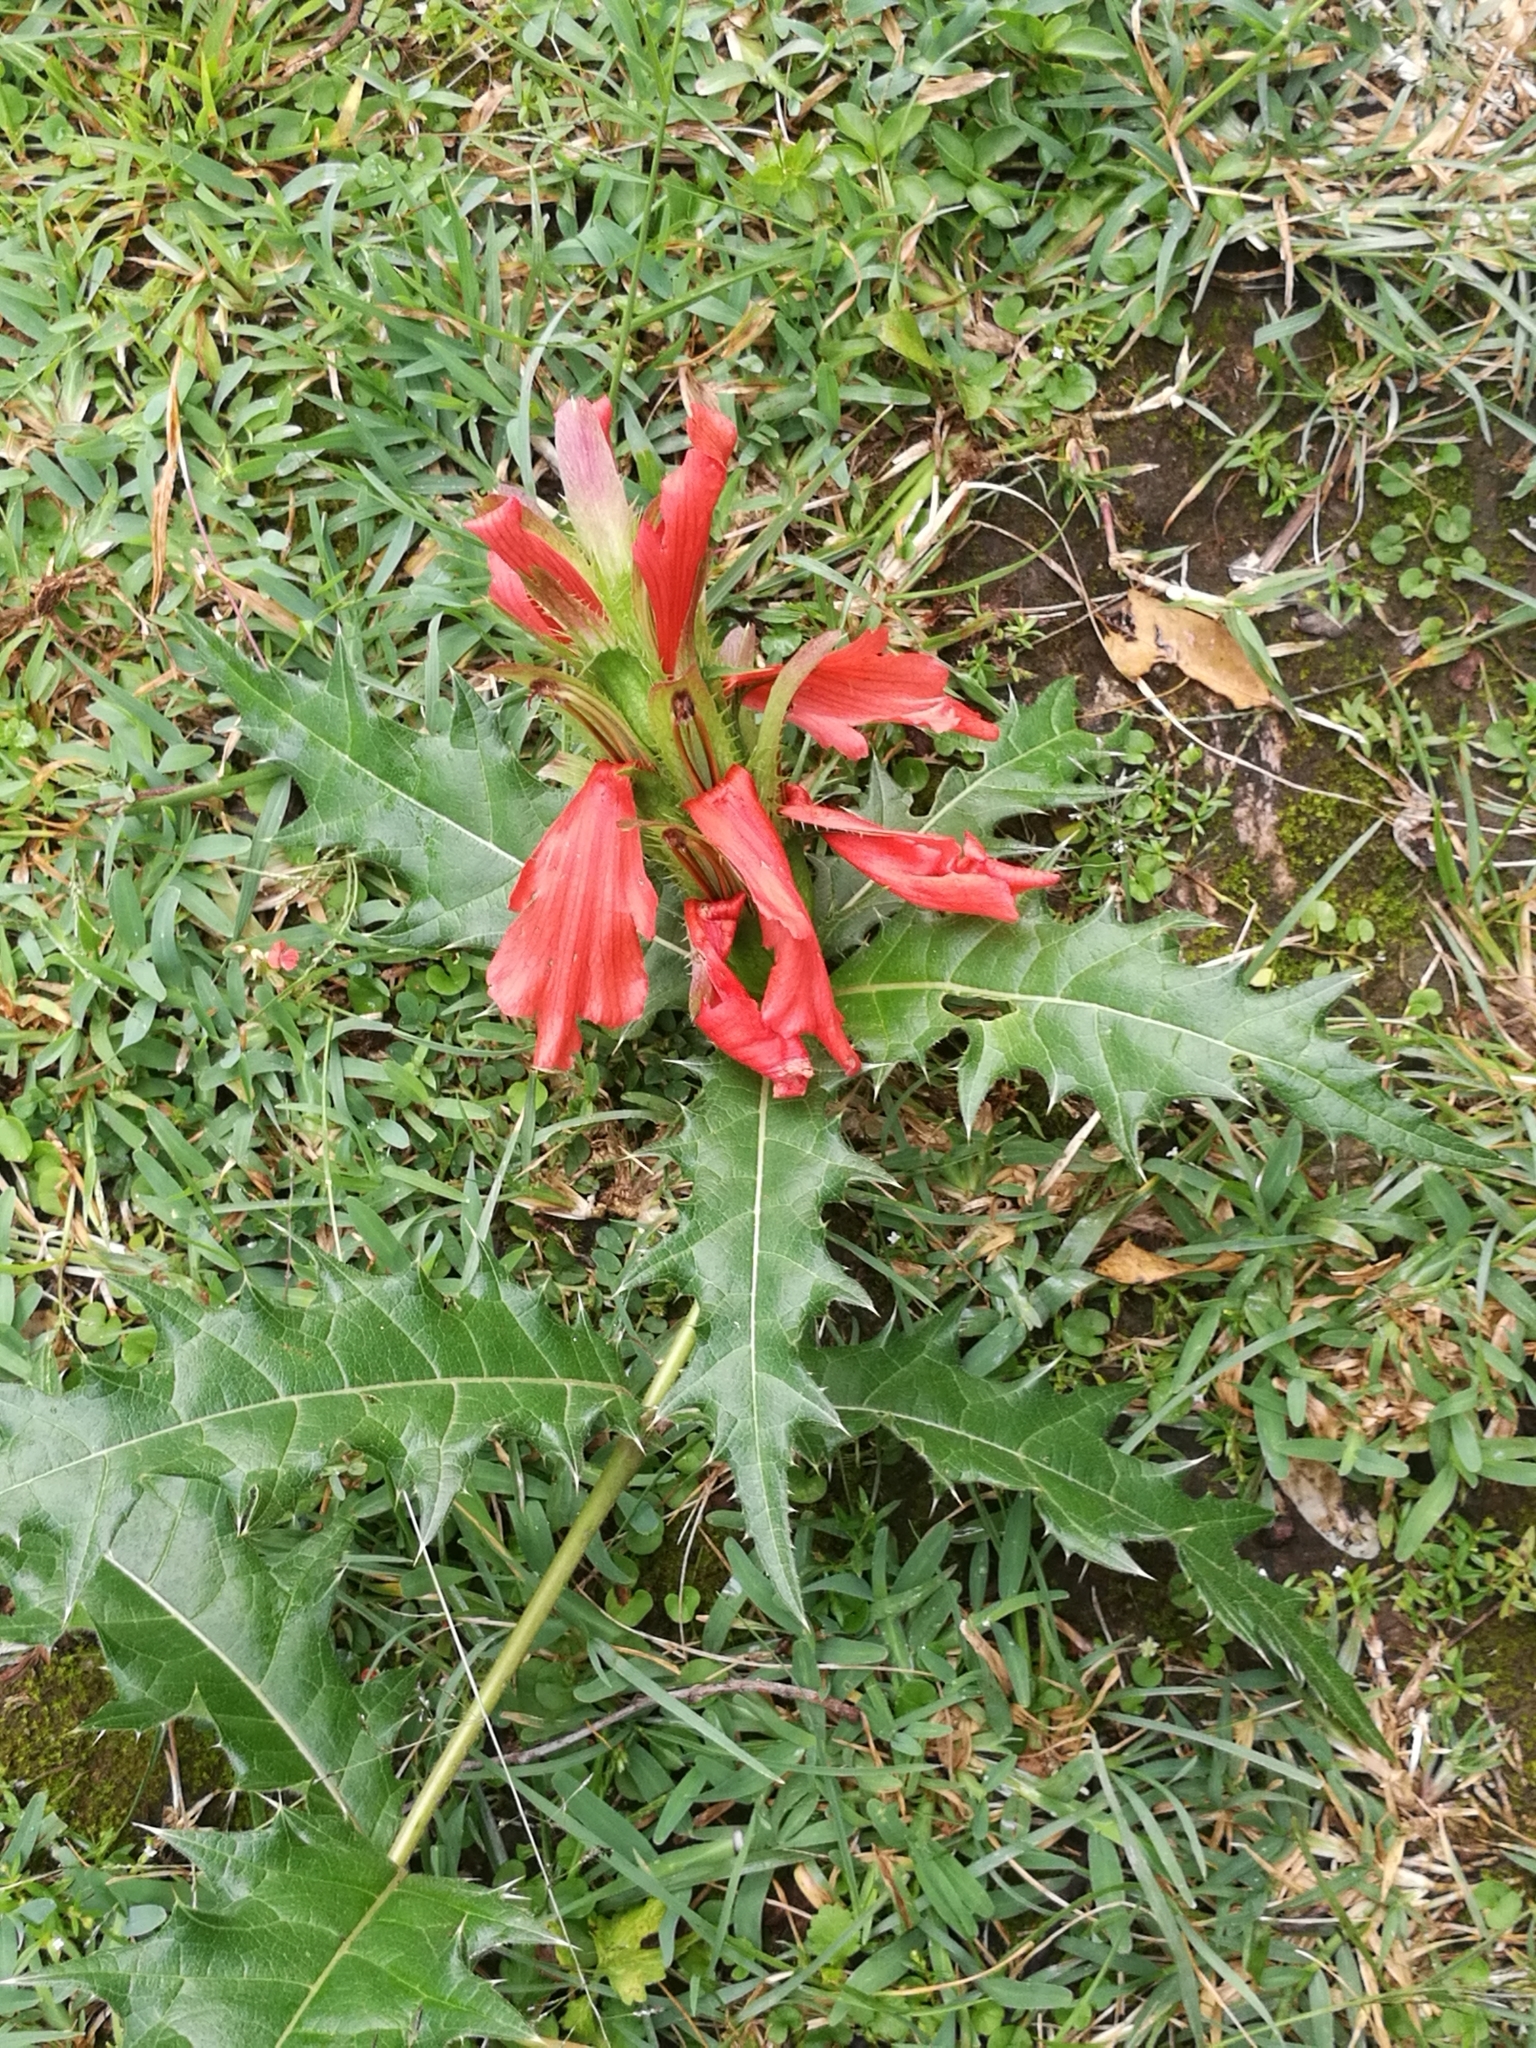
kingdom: Plantae
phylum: Tracheophyta
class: Magnoliopsida
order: Lamiales
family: Acanthaceae
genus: Acanthus
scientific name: Acanthus sennii
